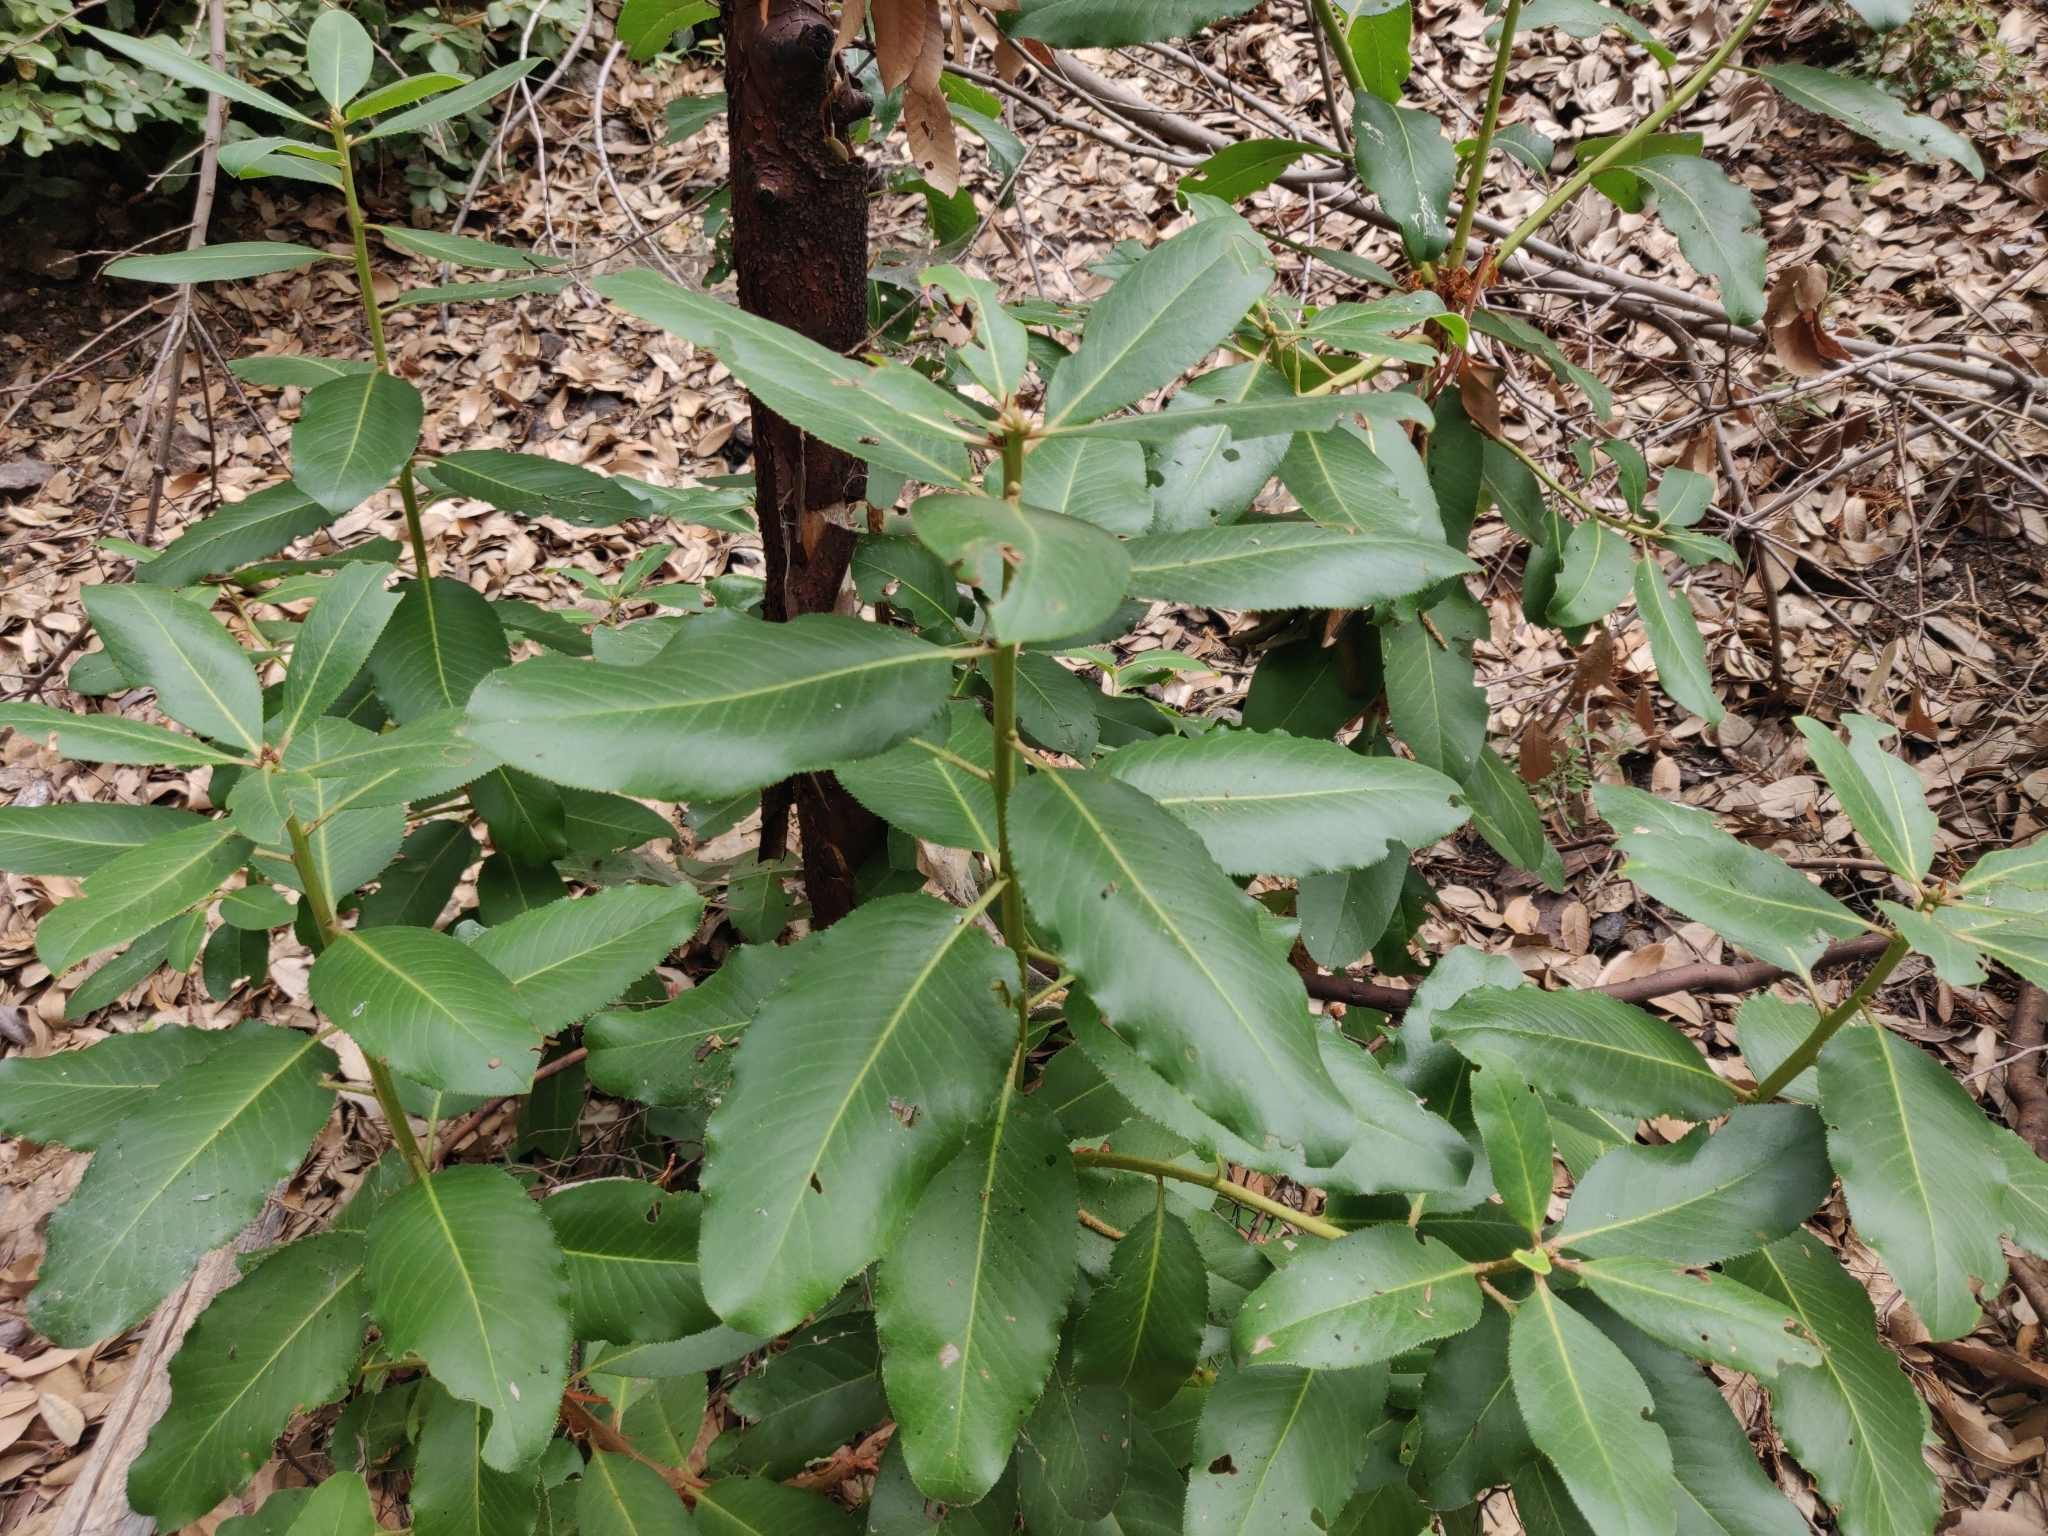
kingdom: Plantae
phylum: Tracheophyta
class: Magnoliopsida
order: Ericales
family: Ericaceae
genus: Arbutus
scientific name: Arbutus menziesii
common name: Pacific madrone
